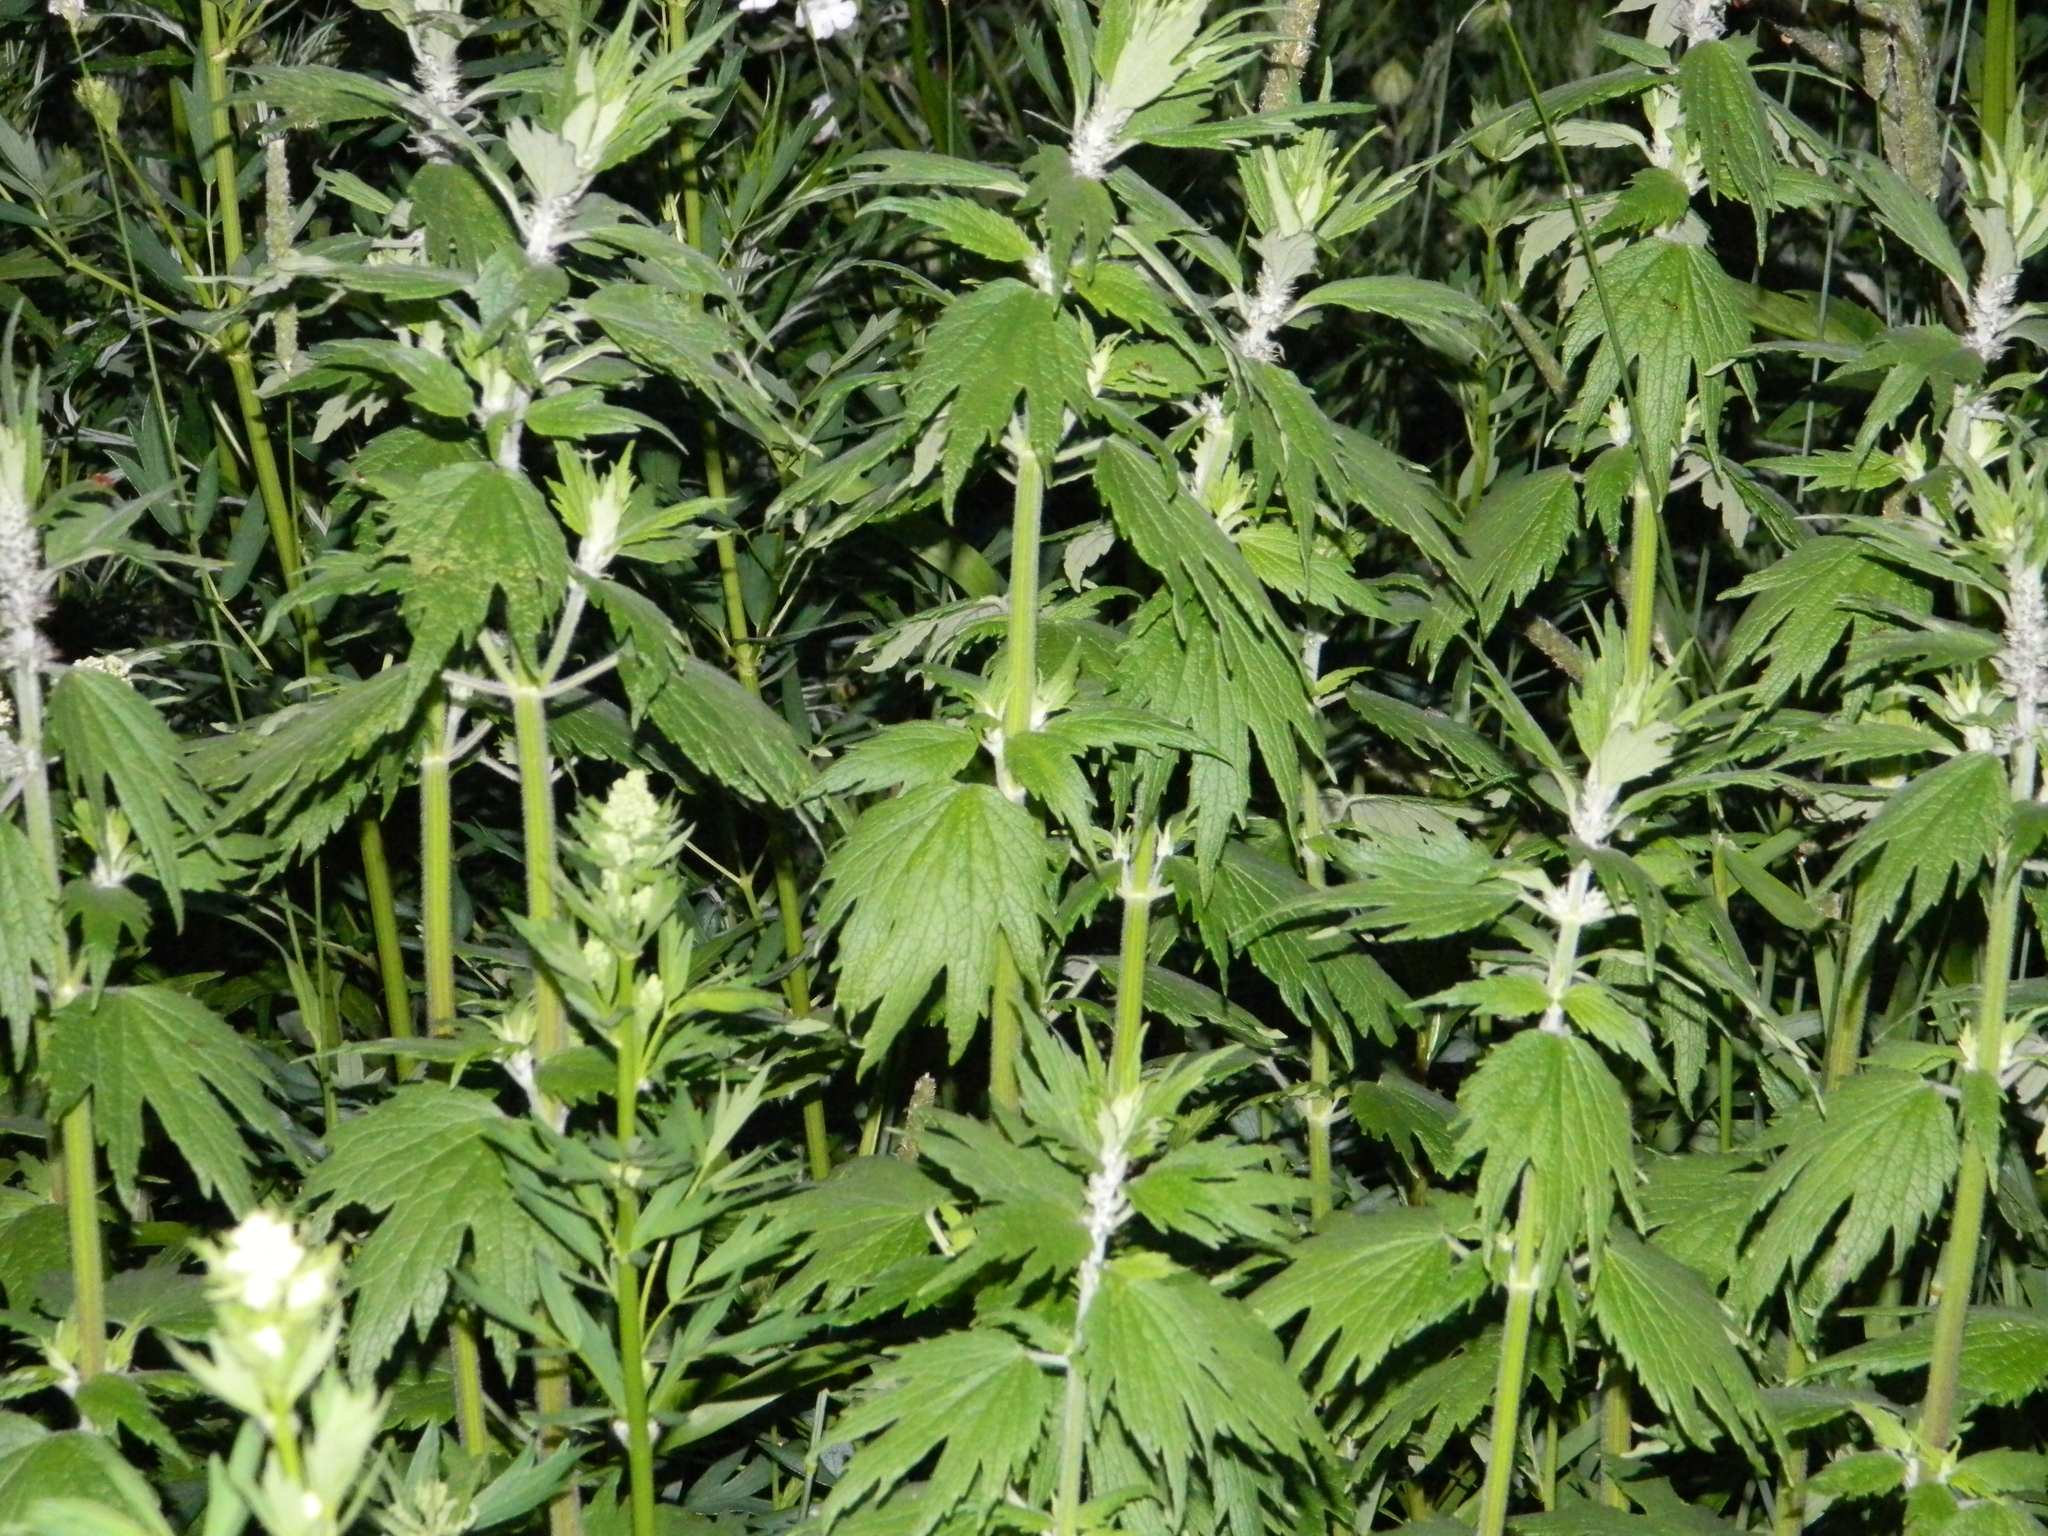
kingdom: Plantae
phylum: Tracheophyta
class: Magnoliopsida
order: Lamiales
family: Lamiaceae
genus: Leonurus
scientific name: Leonurus quinquelobatus
